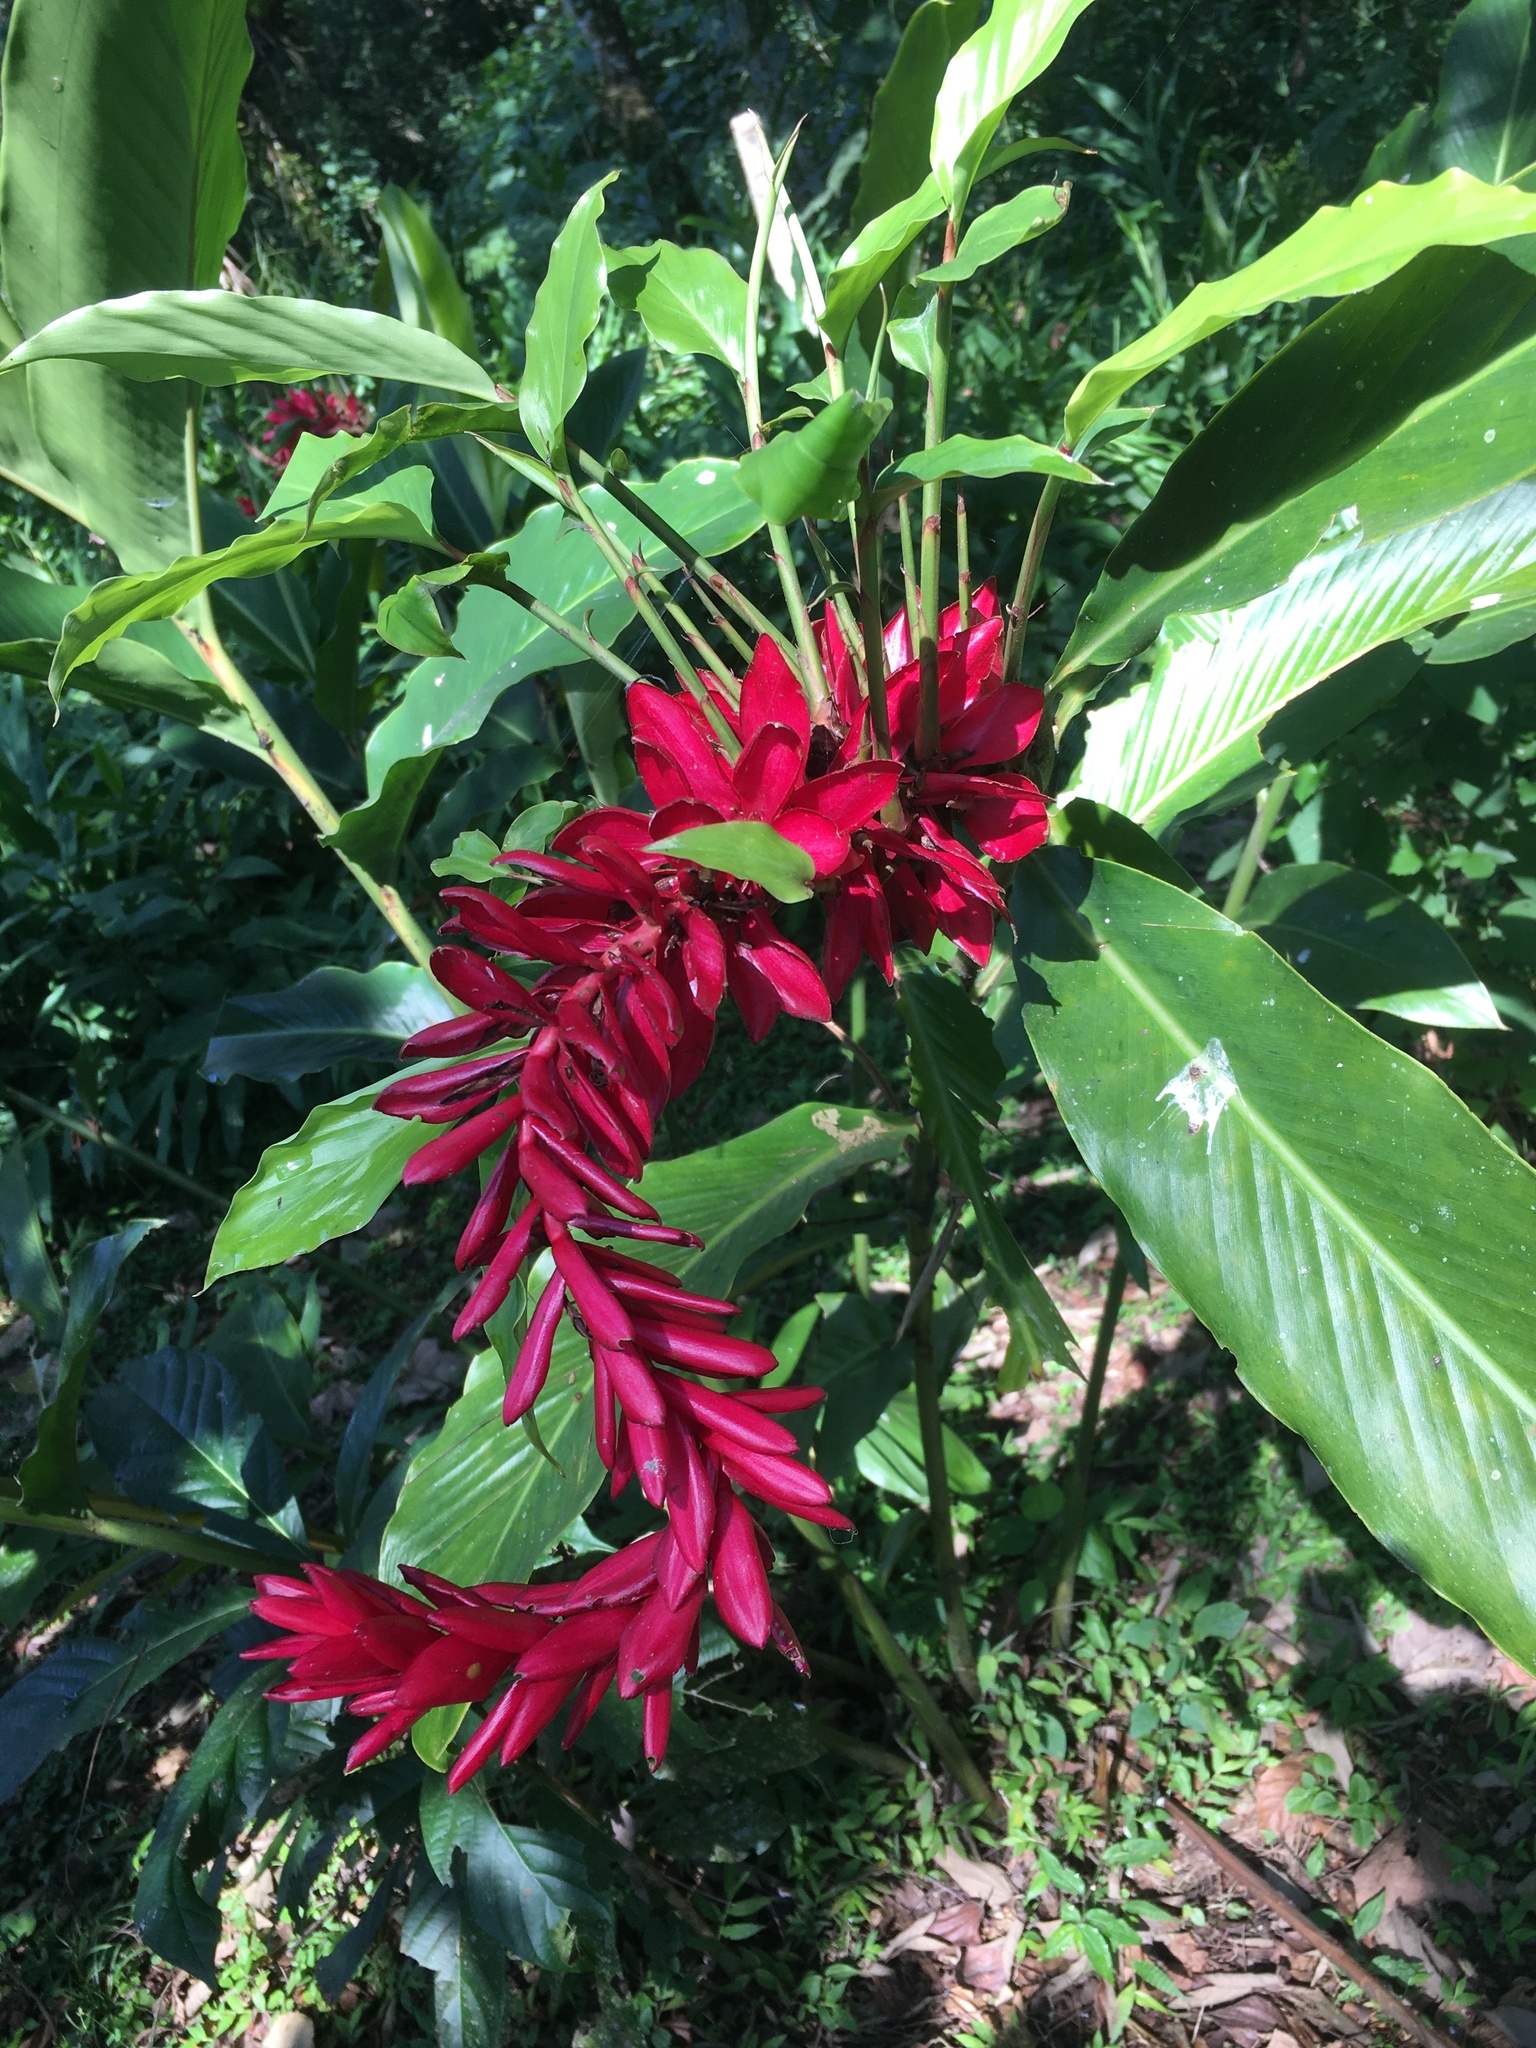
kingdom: Plantae
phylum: Tracheophyta
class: Liliopsida
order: Zingiberales
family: Zingiberaceae
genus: Alpinia
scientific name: Alpinia purpurata
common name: Red ginger
